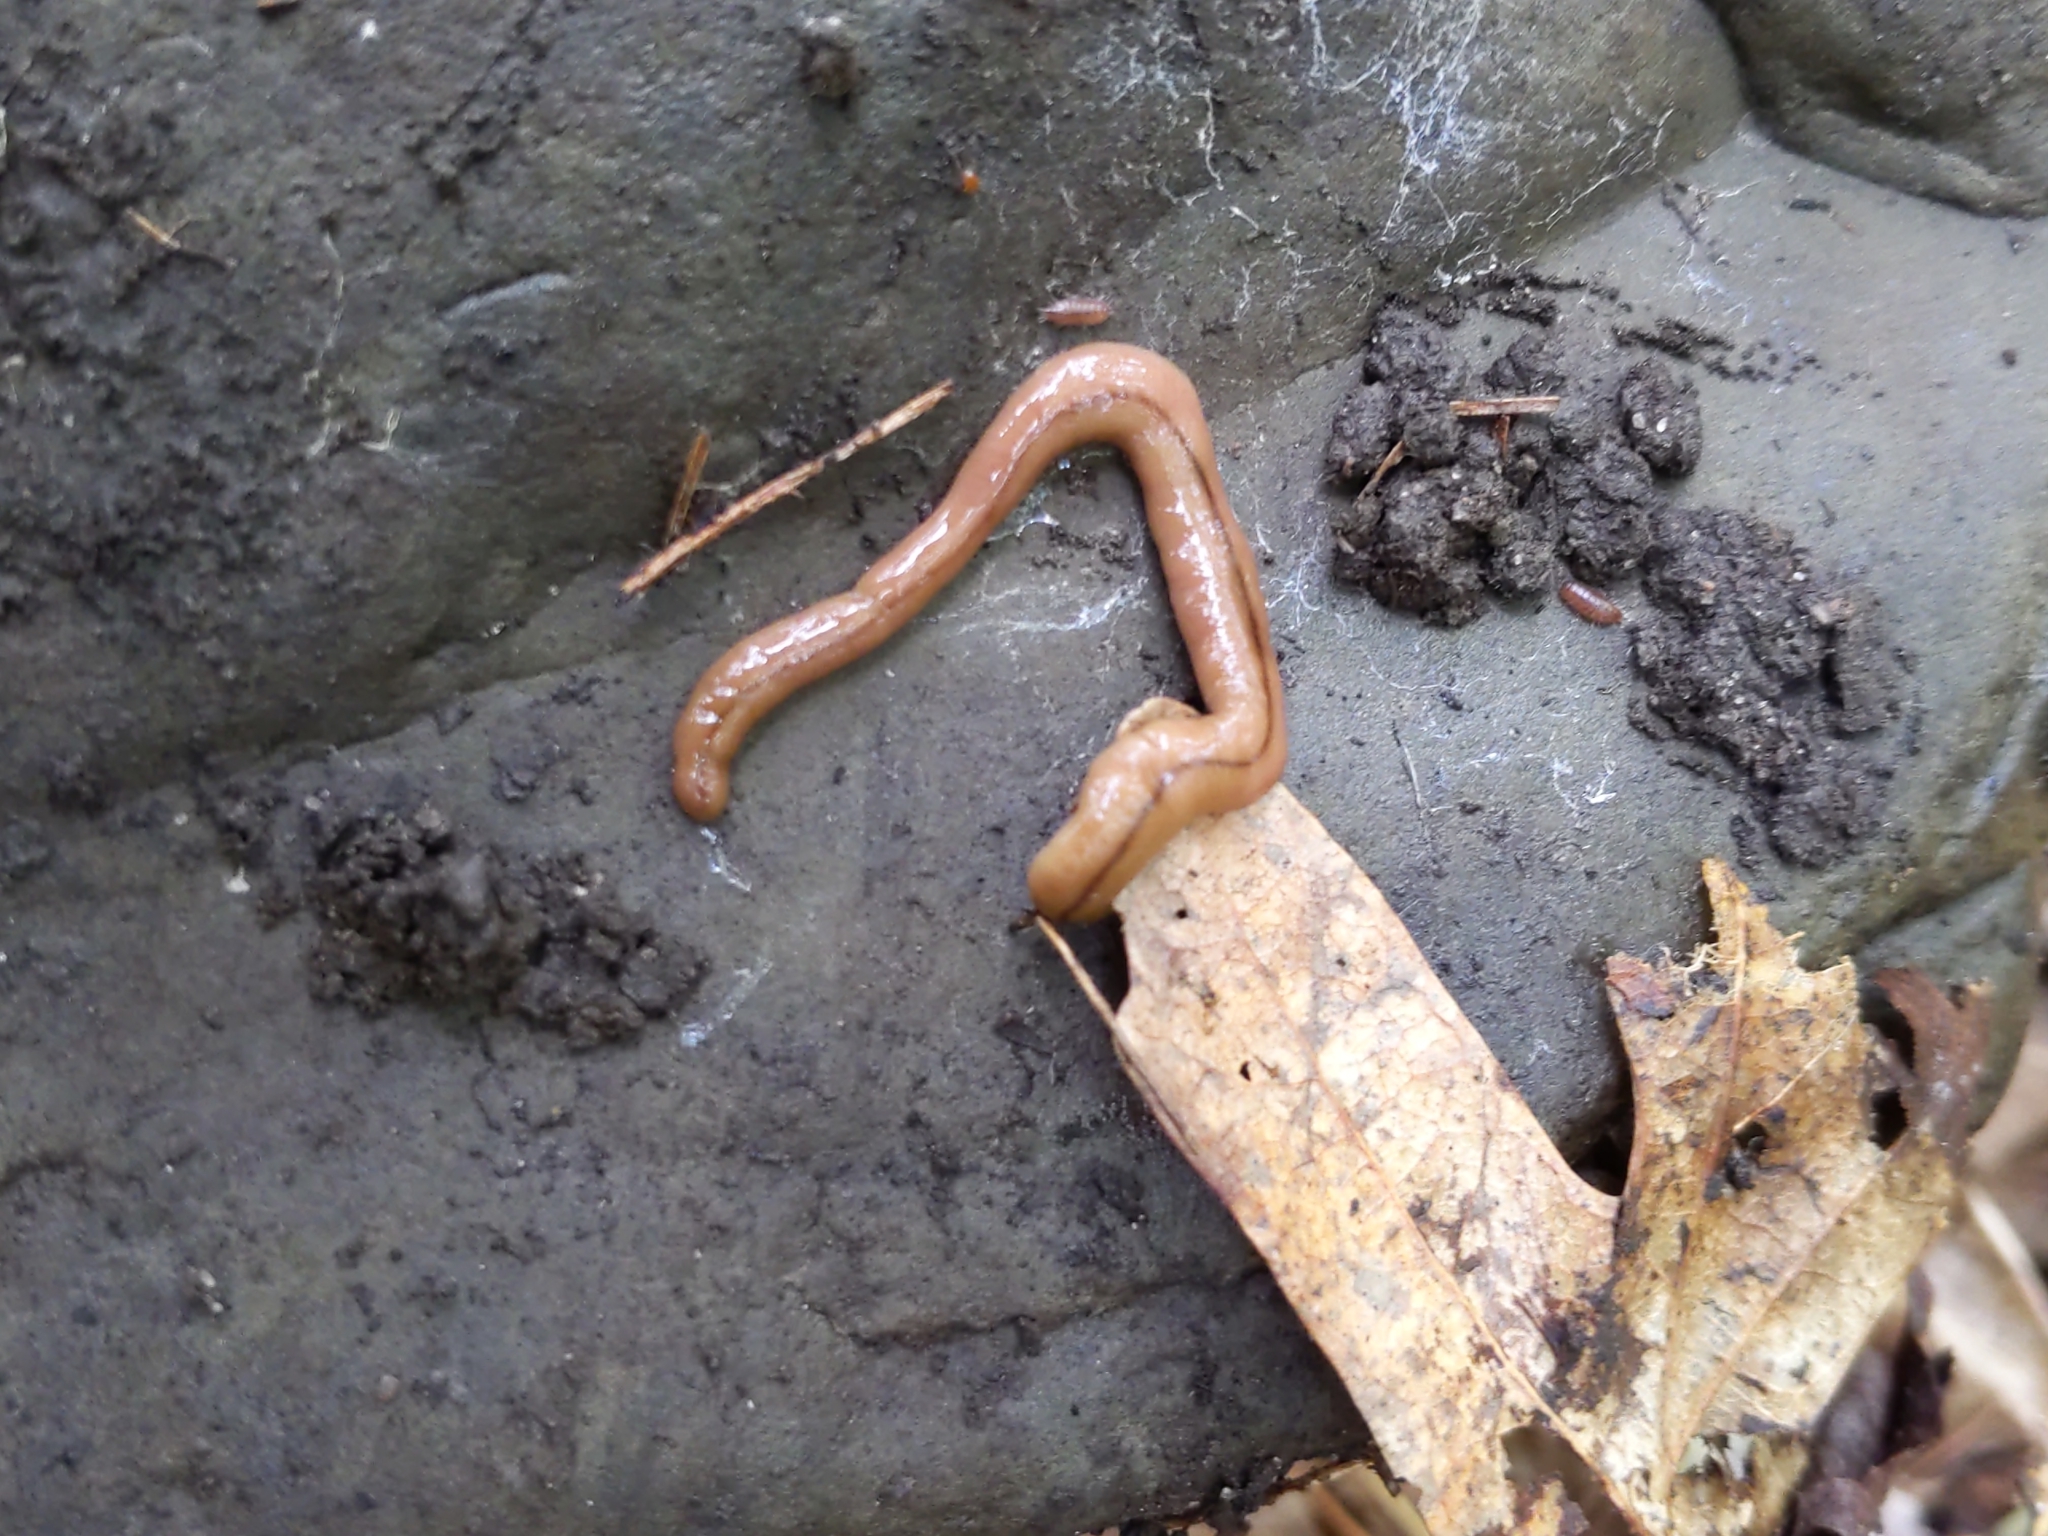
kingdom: Animalia
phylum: Platyhelminthes
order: Tricladida
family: Geoplanidae
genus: Bipalium
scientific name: Bipalium adventitium
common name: Land planarian
